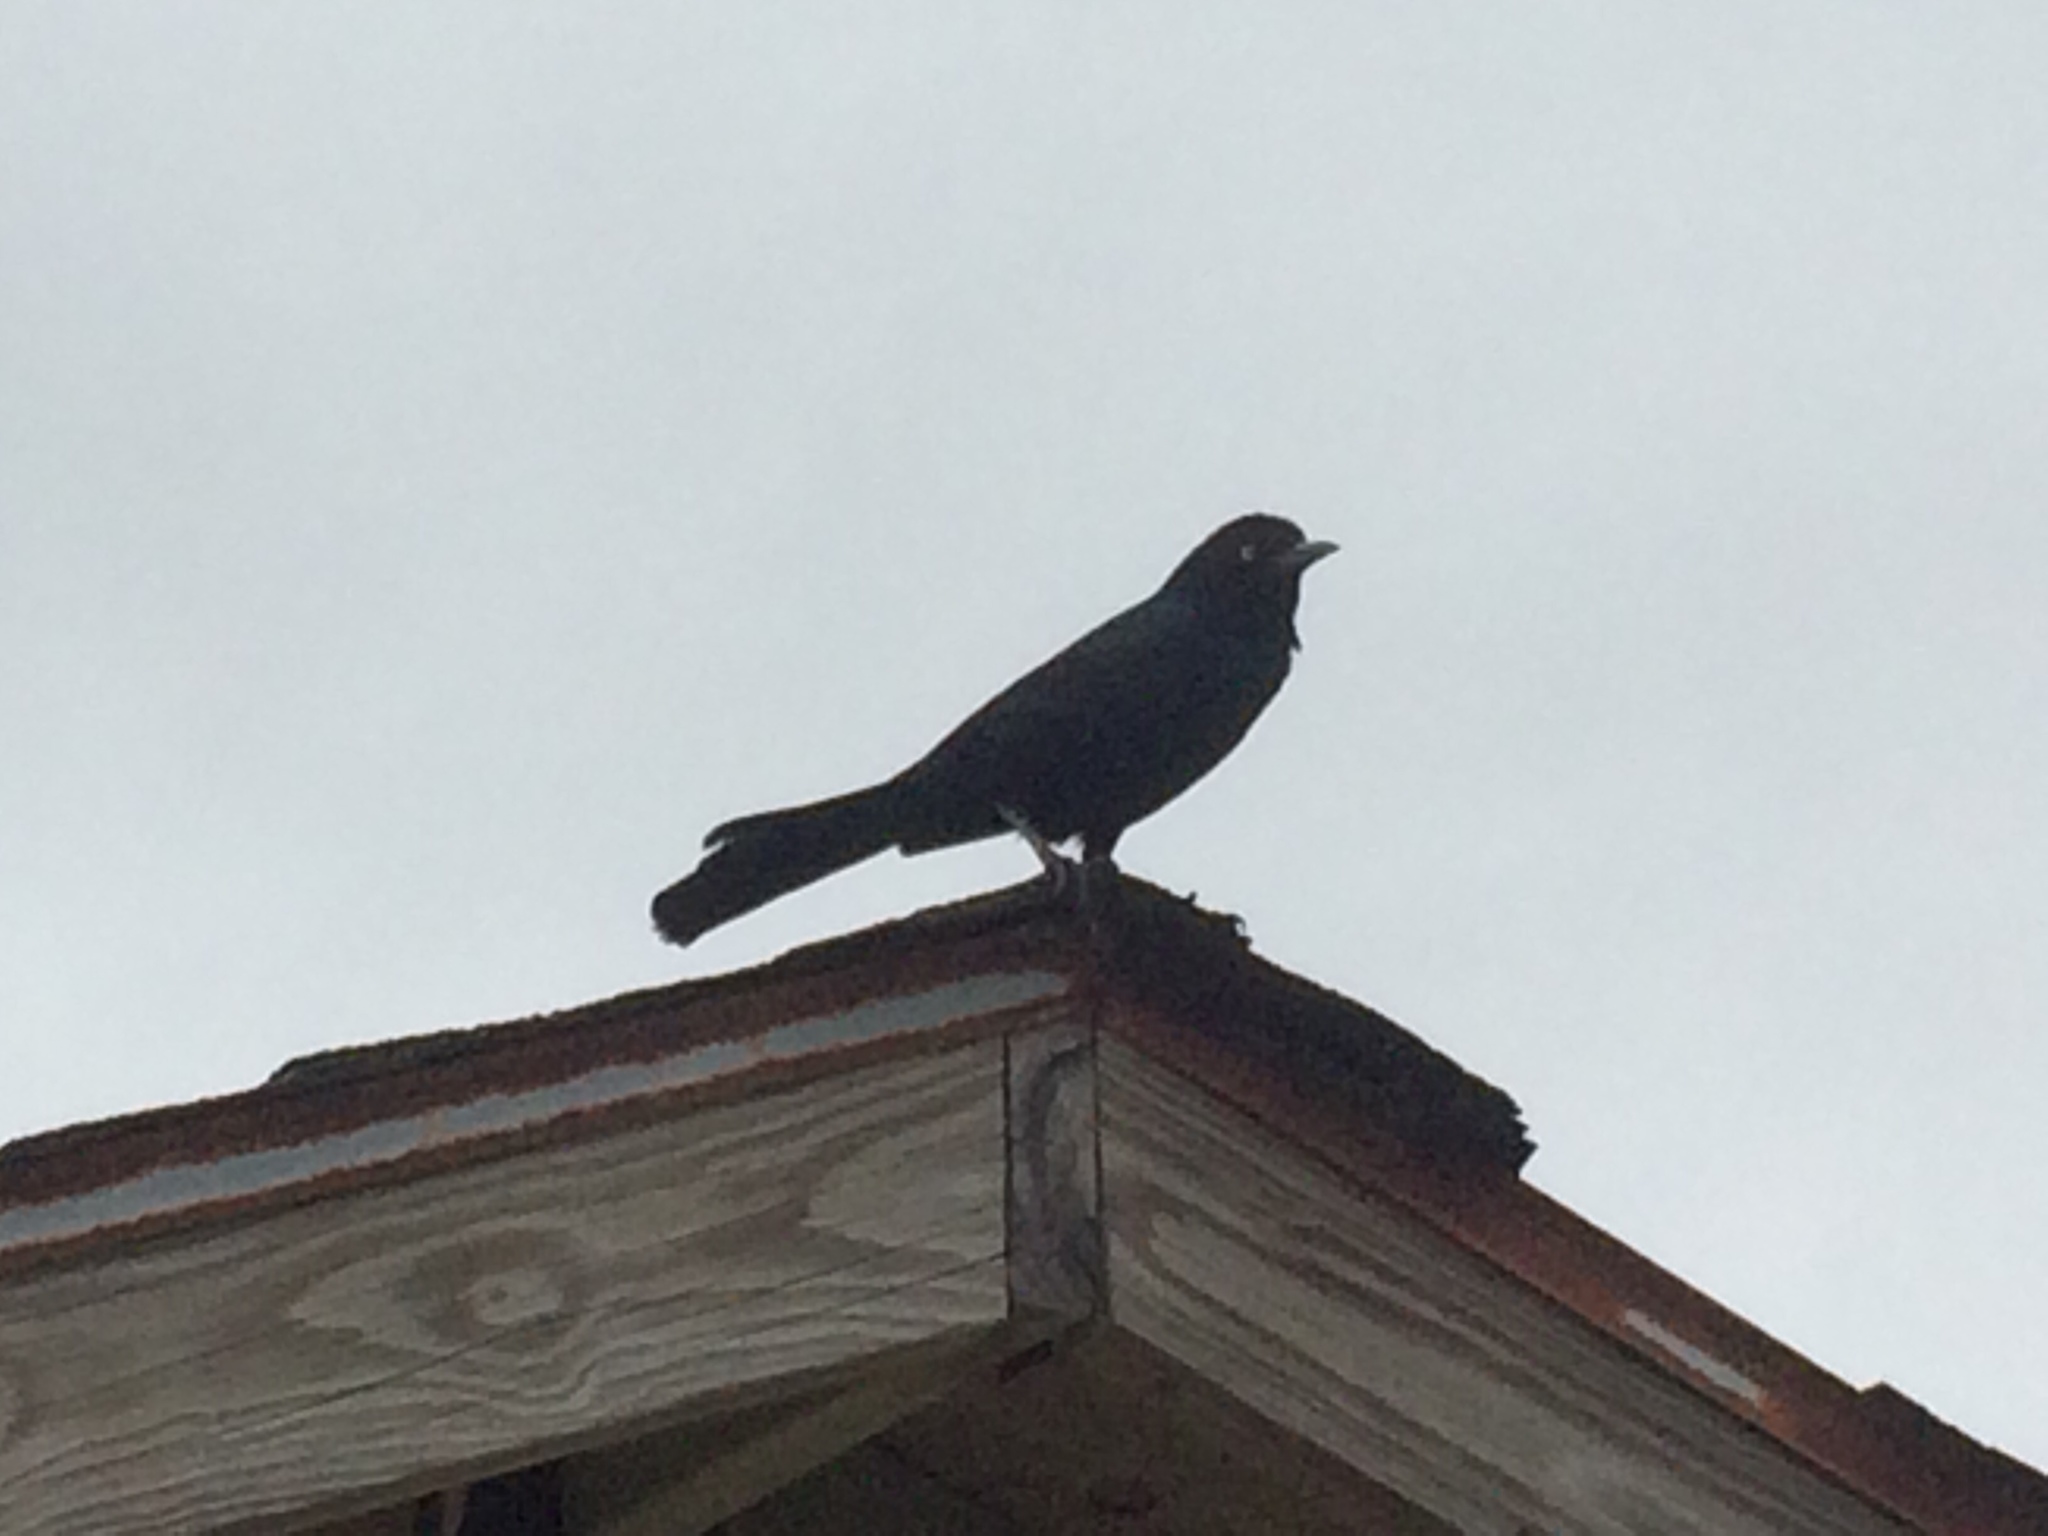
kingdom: Animalia
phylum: Chordata
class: Aves
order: Passeriformes
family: Icteridae
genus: Quiscalus
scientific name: Quiscalus major
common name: Boat-tailed grackle
